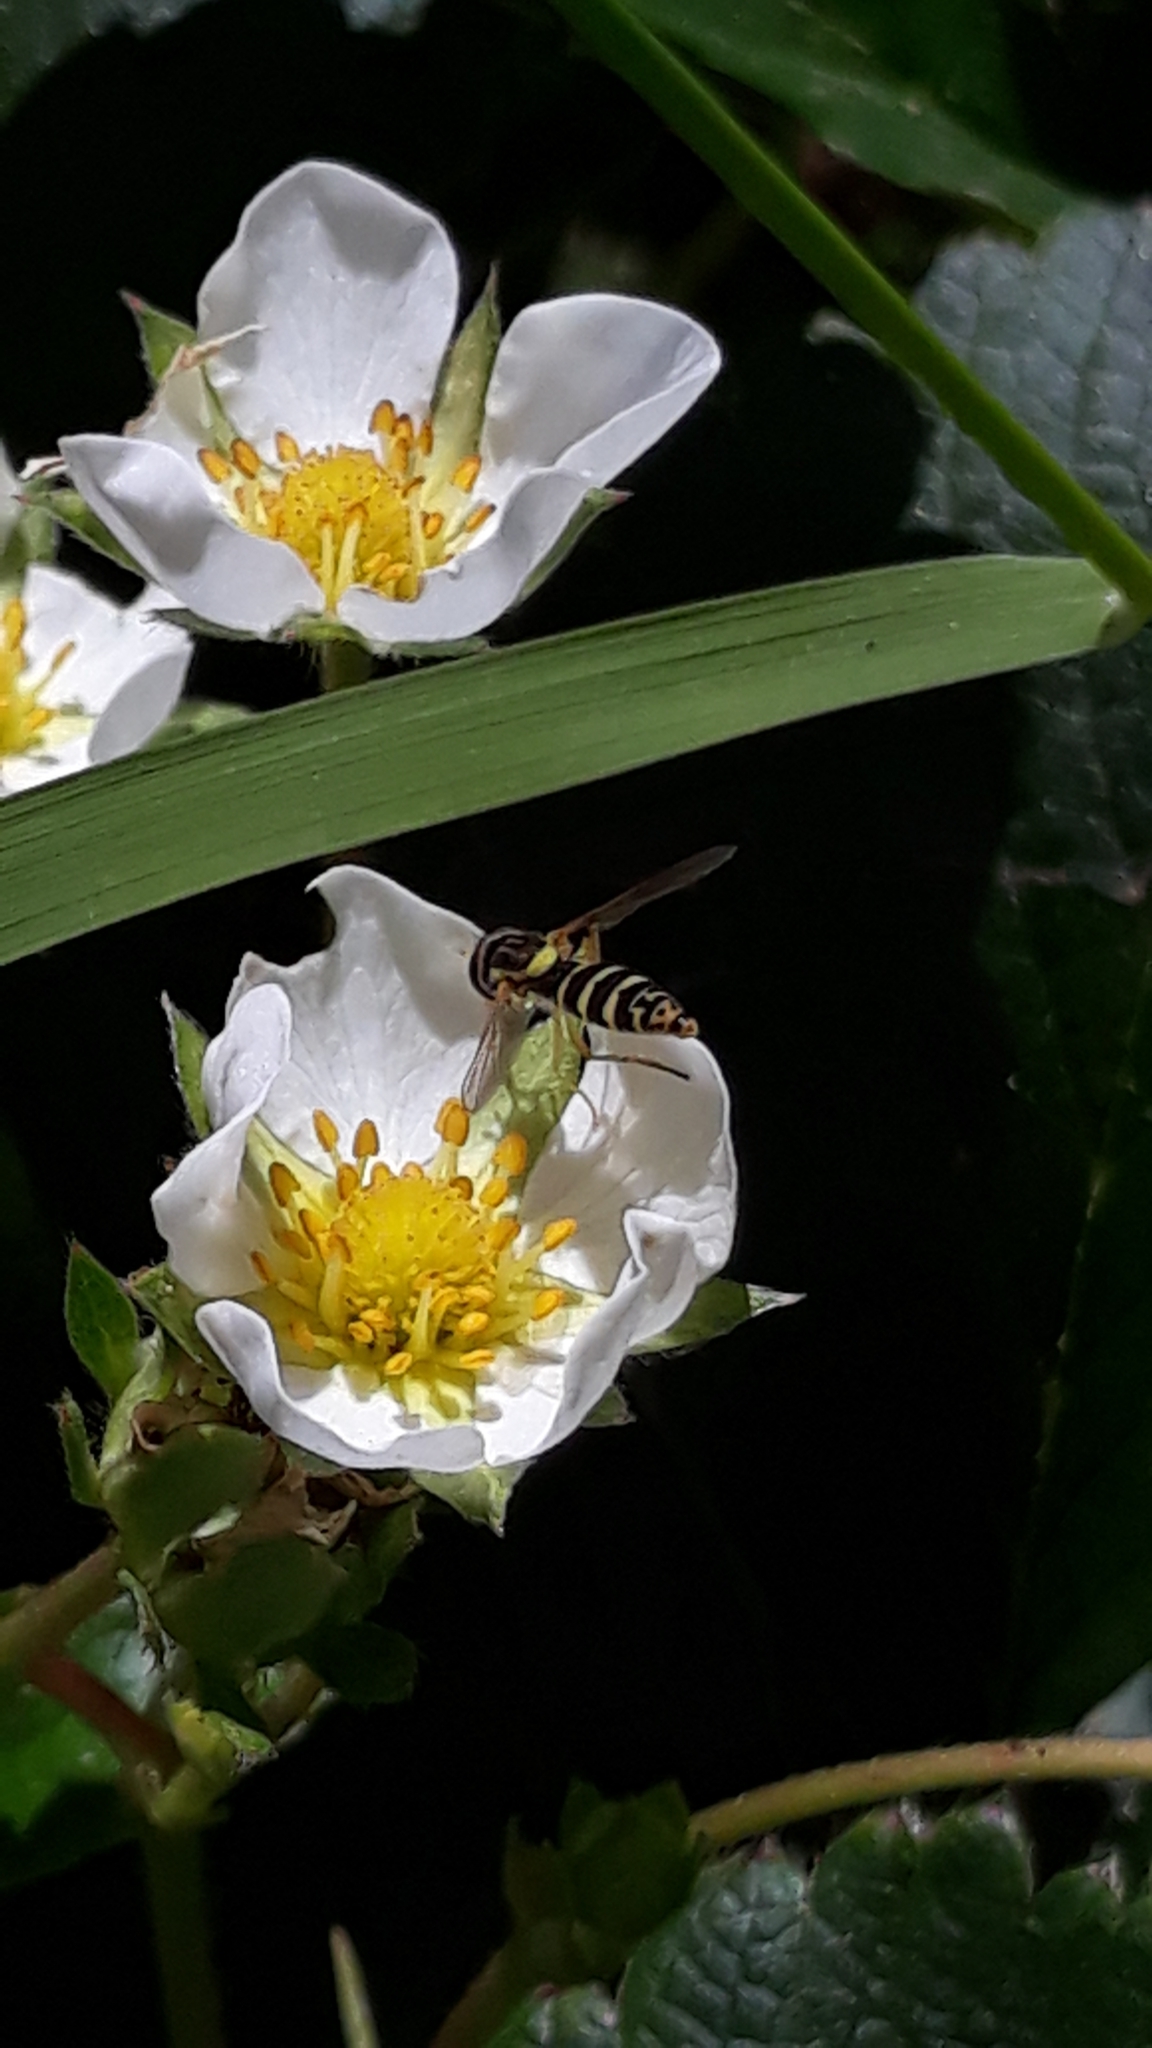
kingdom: Animalia
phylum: Arthropoda
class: Insecta
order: Diptera
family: Syrphidae
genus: Sphaerophoria
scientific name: Sphaerophoria
